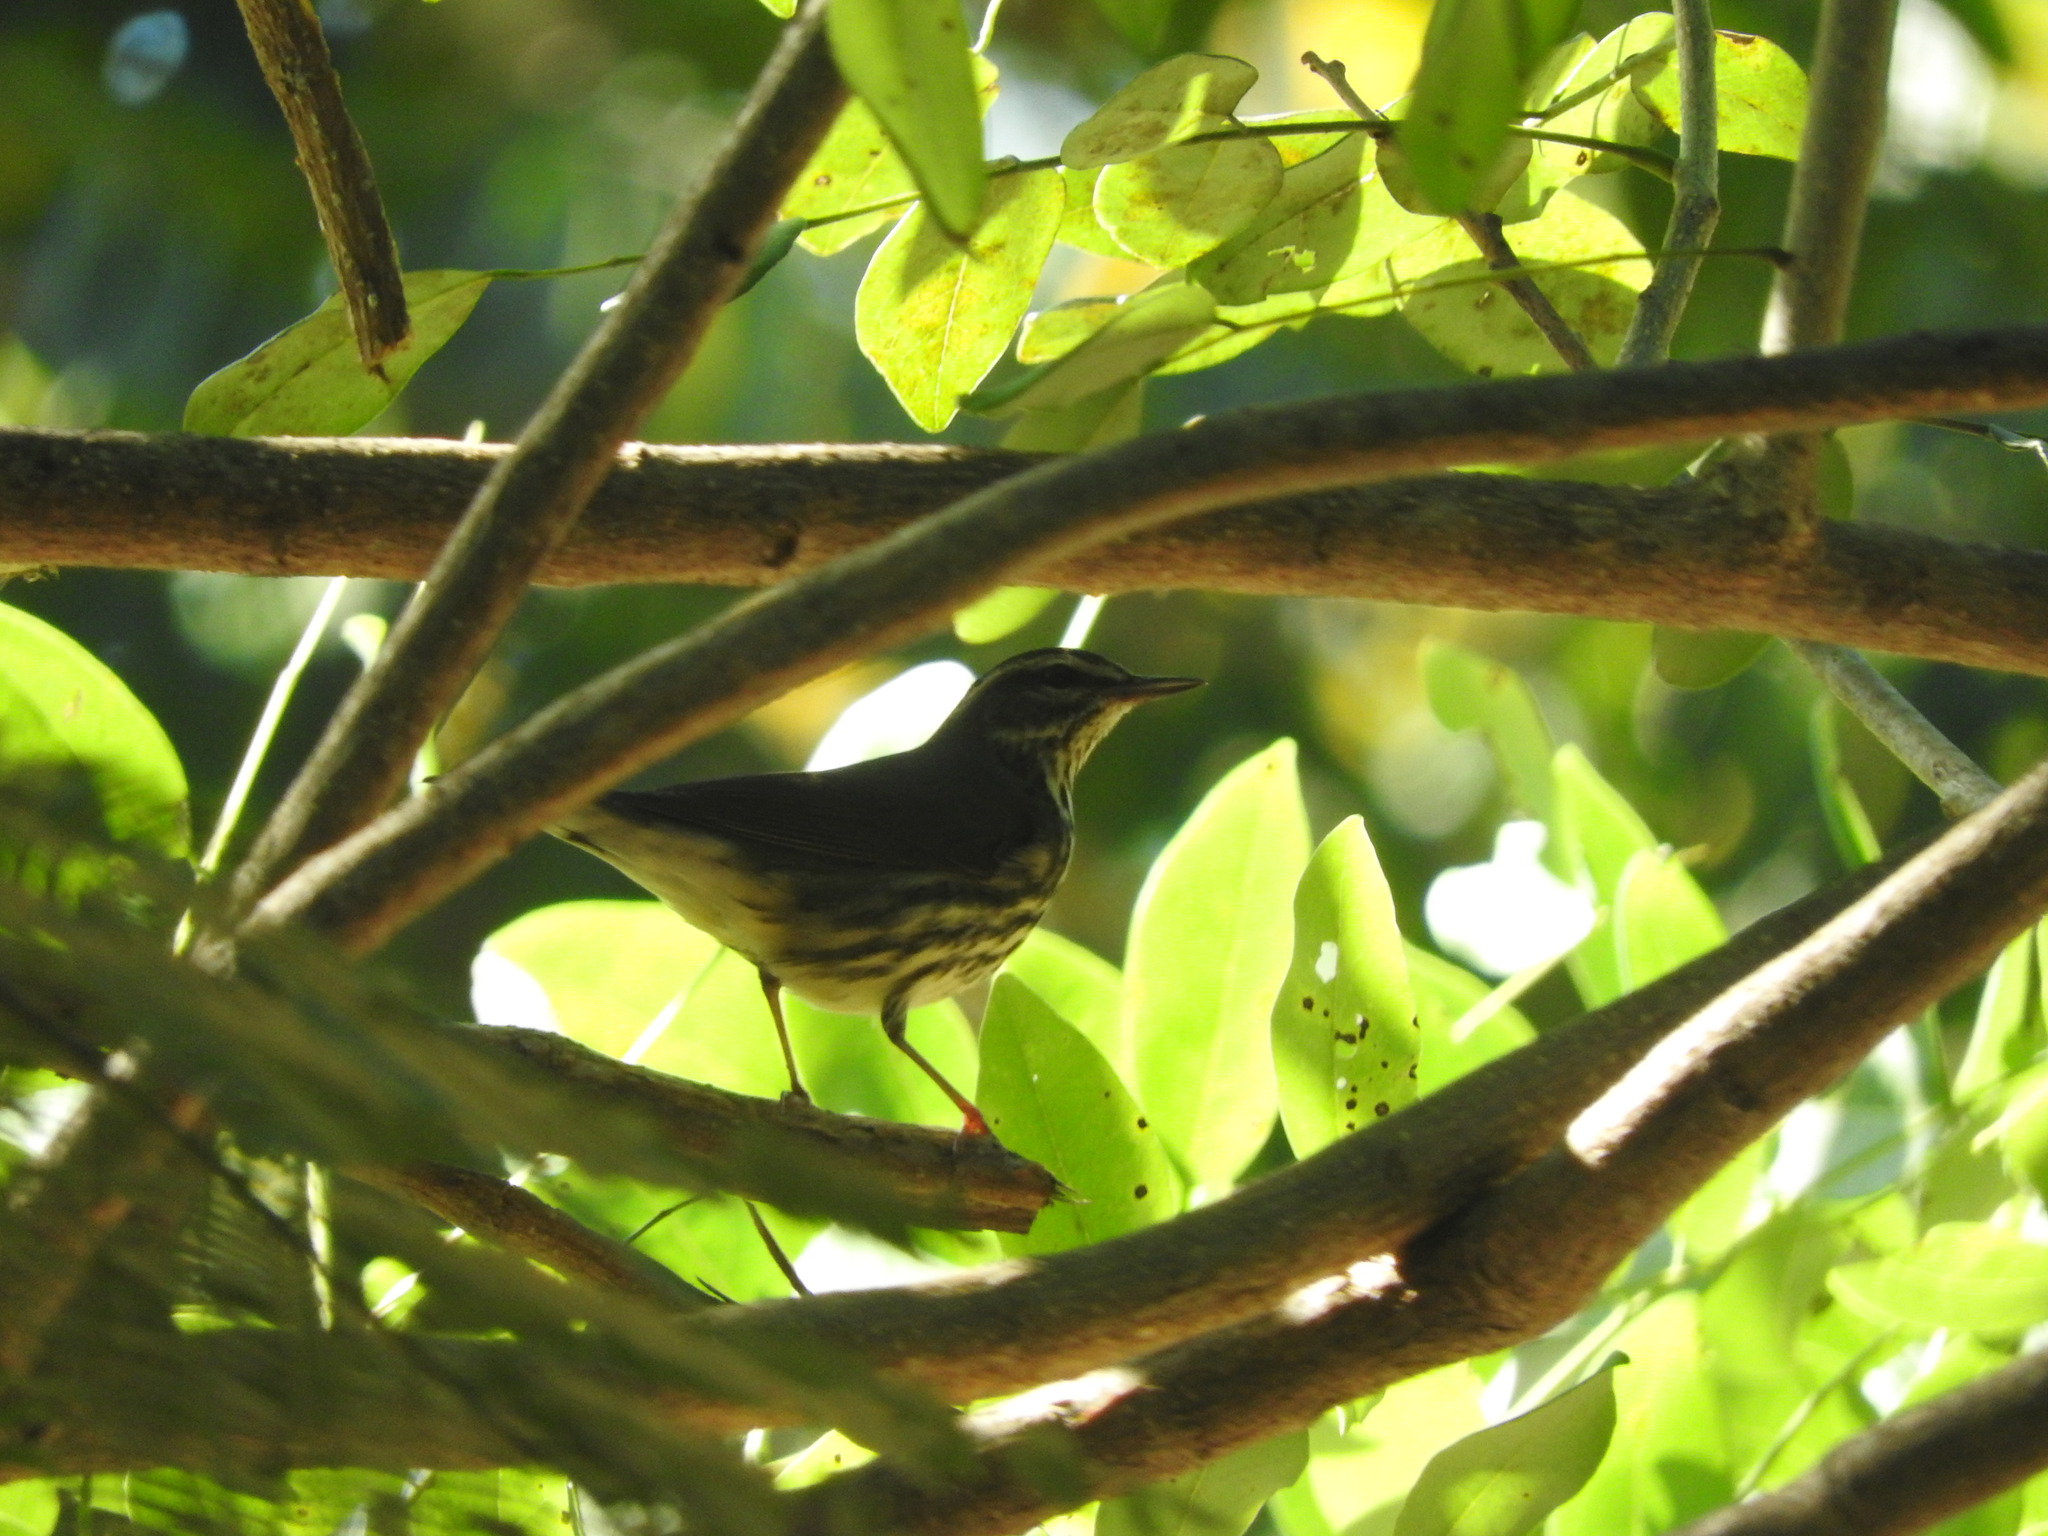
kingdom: Animalia
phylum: Chordata
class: Aves
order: Passeriformes
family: Parulidae
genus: Parkesia
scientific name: Parkesia noveboracensis
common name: Northern waterthrush
